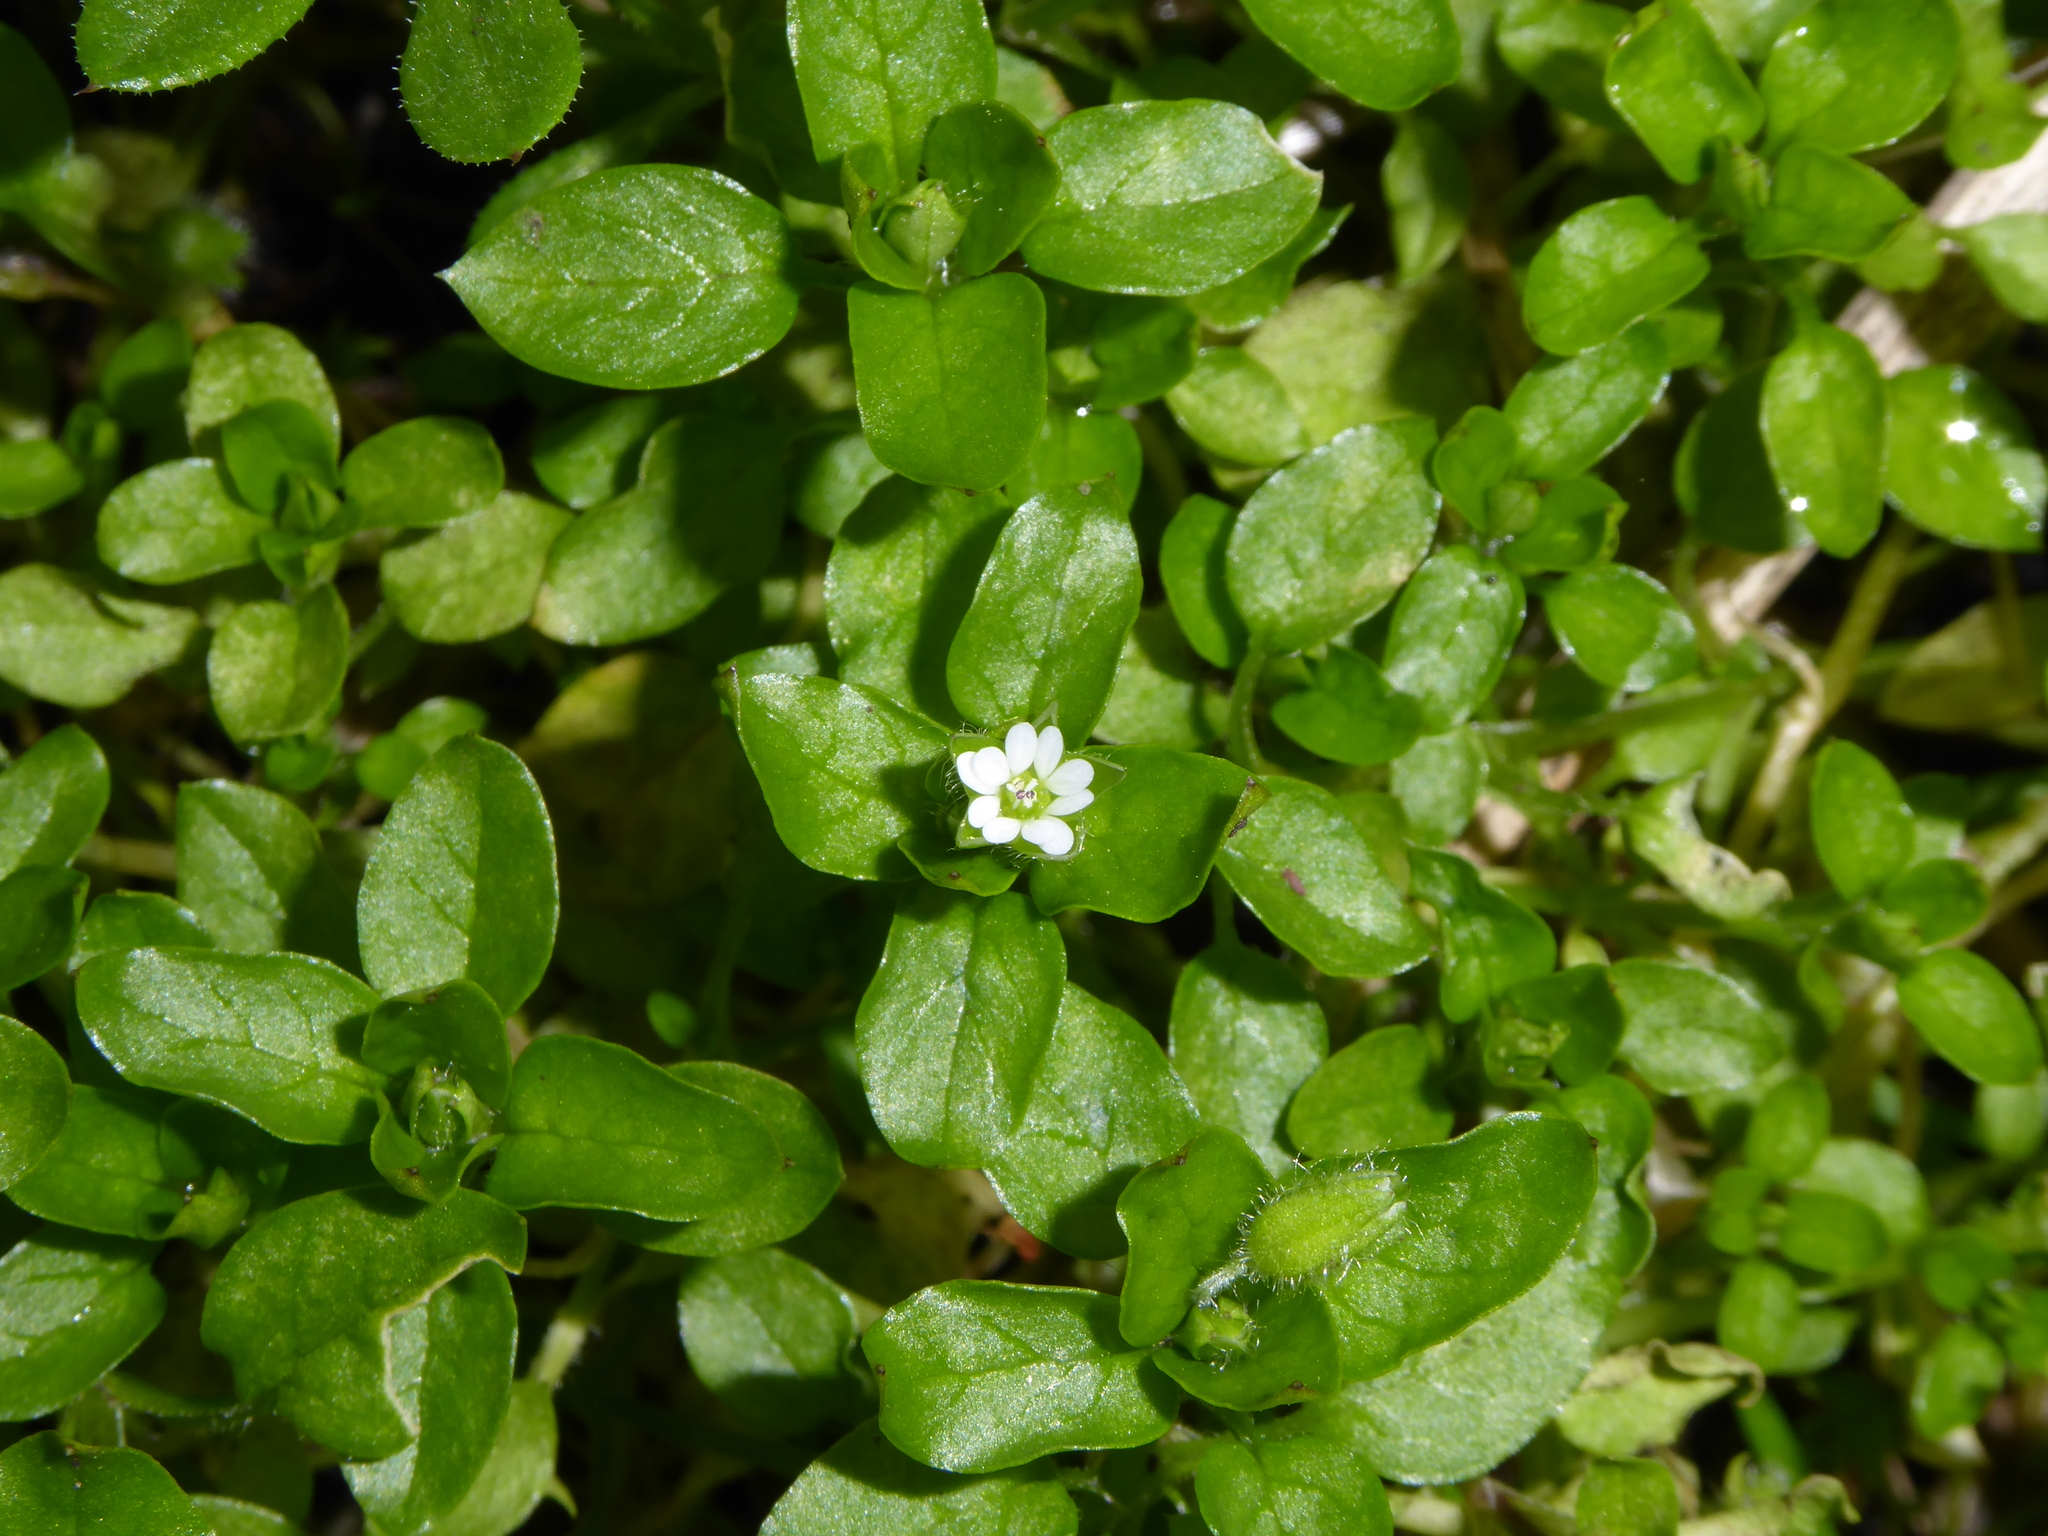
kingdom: Plantae
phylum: Tracheophyta
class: Magnoliopsida
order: Caryophyllales
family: Caryophyllaceae
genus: Stellaria
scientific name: Stellaria media
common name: Common chickweed
